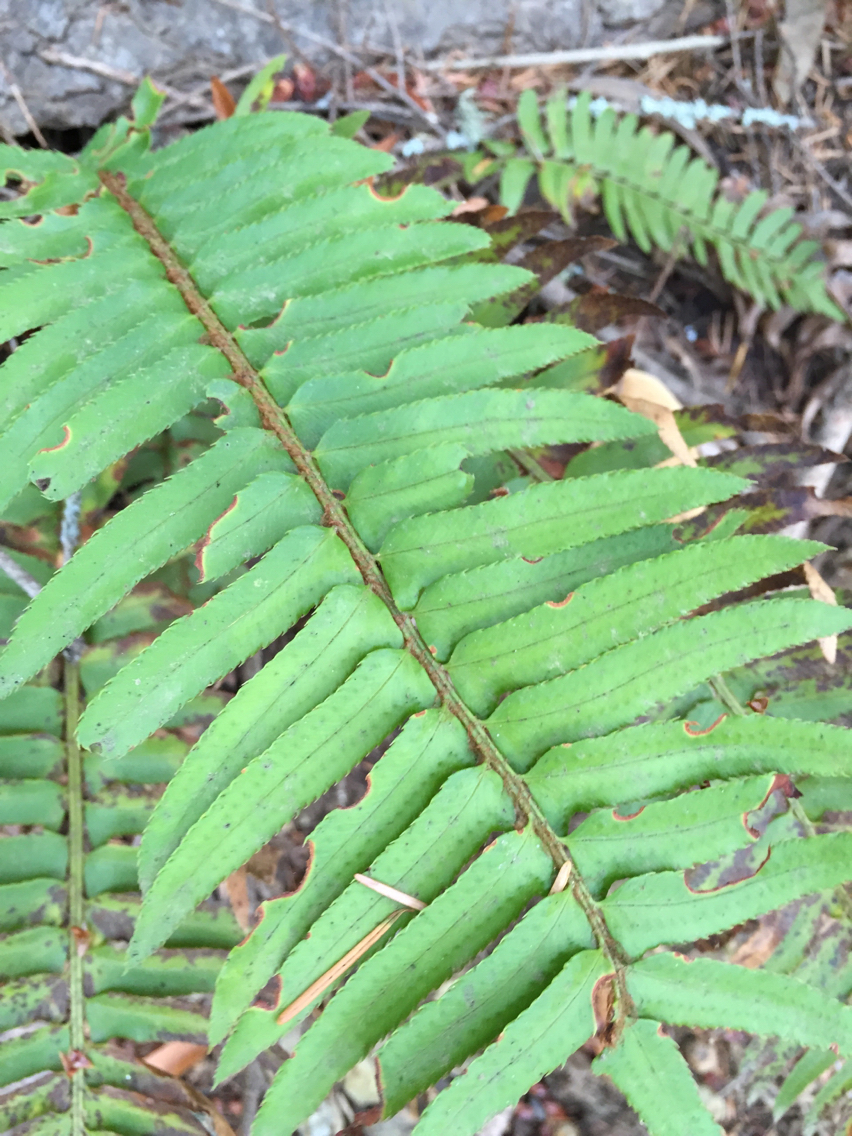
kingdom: Plantae
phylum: Tracheophyta
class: Polypodiopsida
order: Polypodiales
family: Dryopteridaceae
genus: Polystichum
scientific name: Polystichum munitum
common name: Western sword-fern
